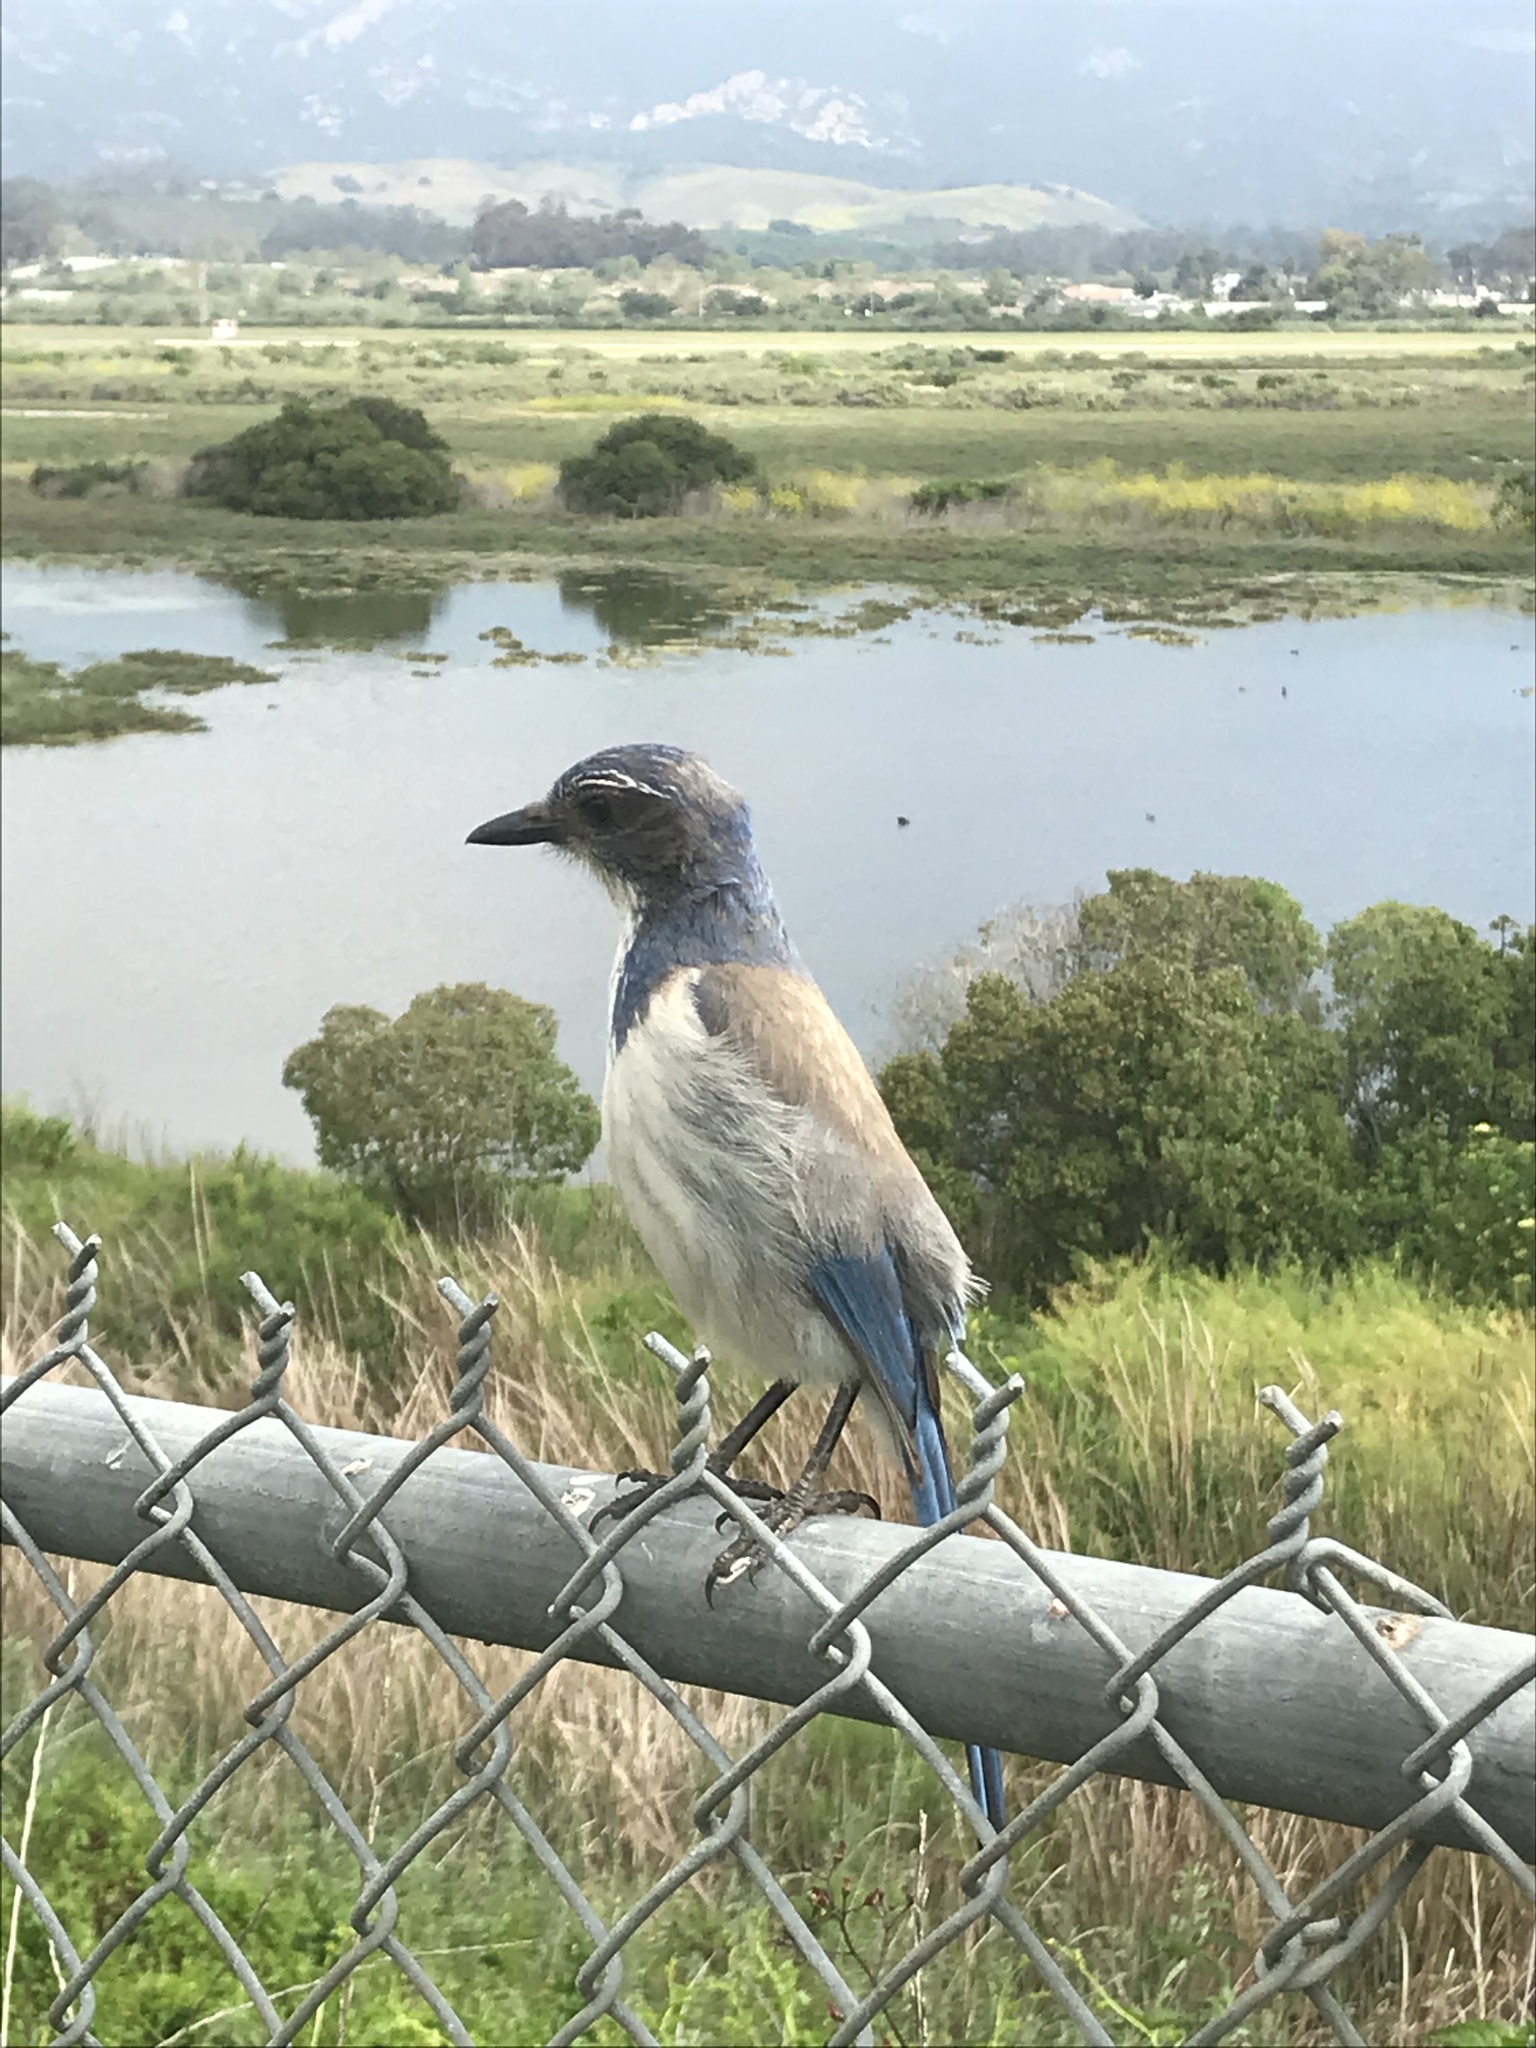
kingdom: Animalia
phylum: Chordata
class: Aves
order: Passeriformes
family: Corvidae
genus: Aphelocoma
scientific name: Aphelocoma californica
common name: California scrub-jay
